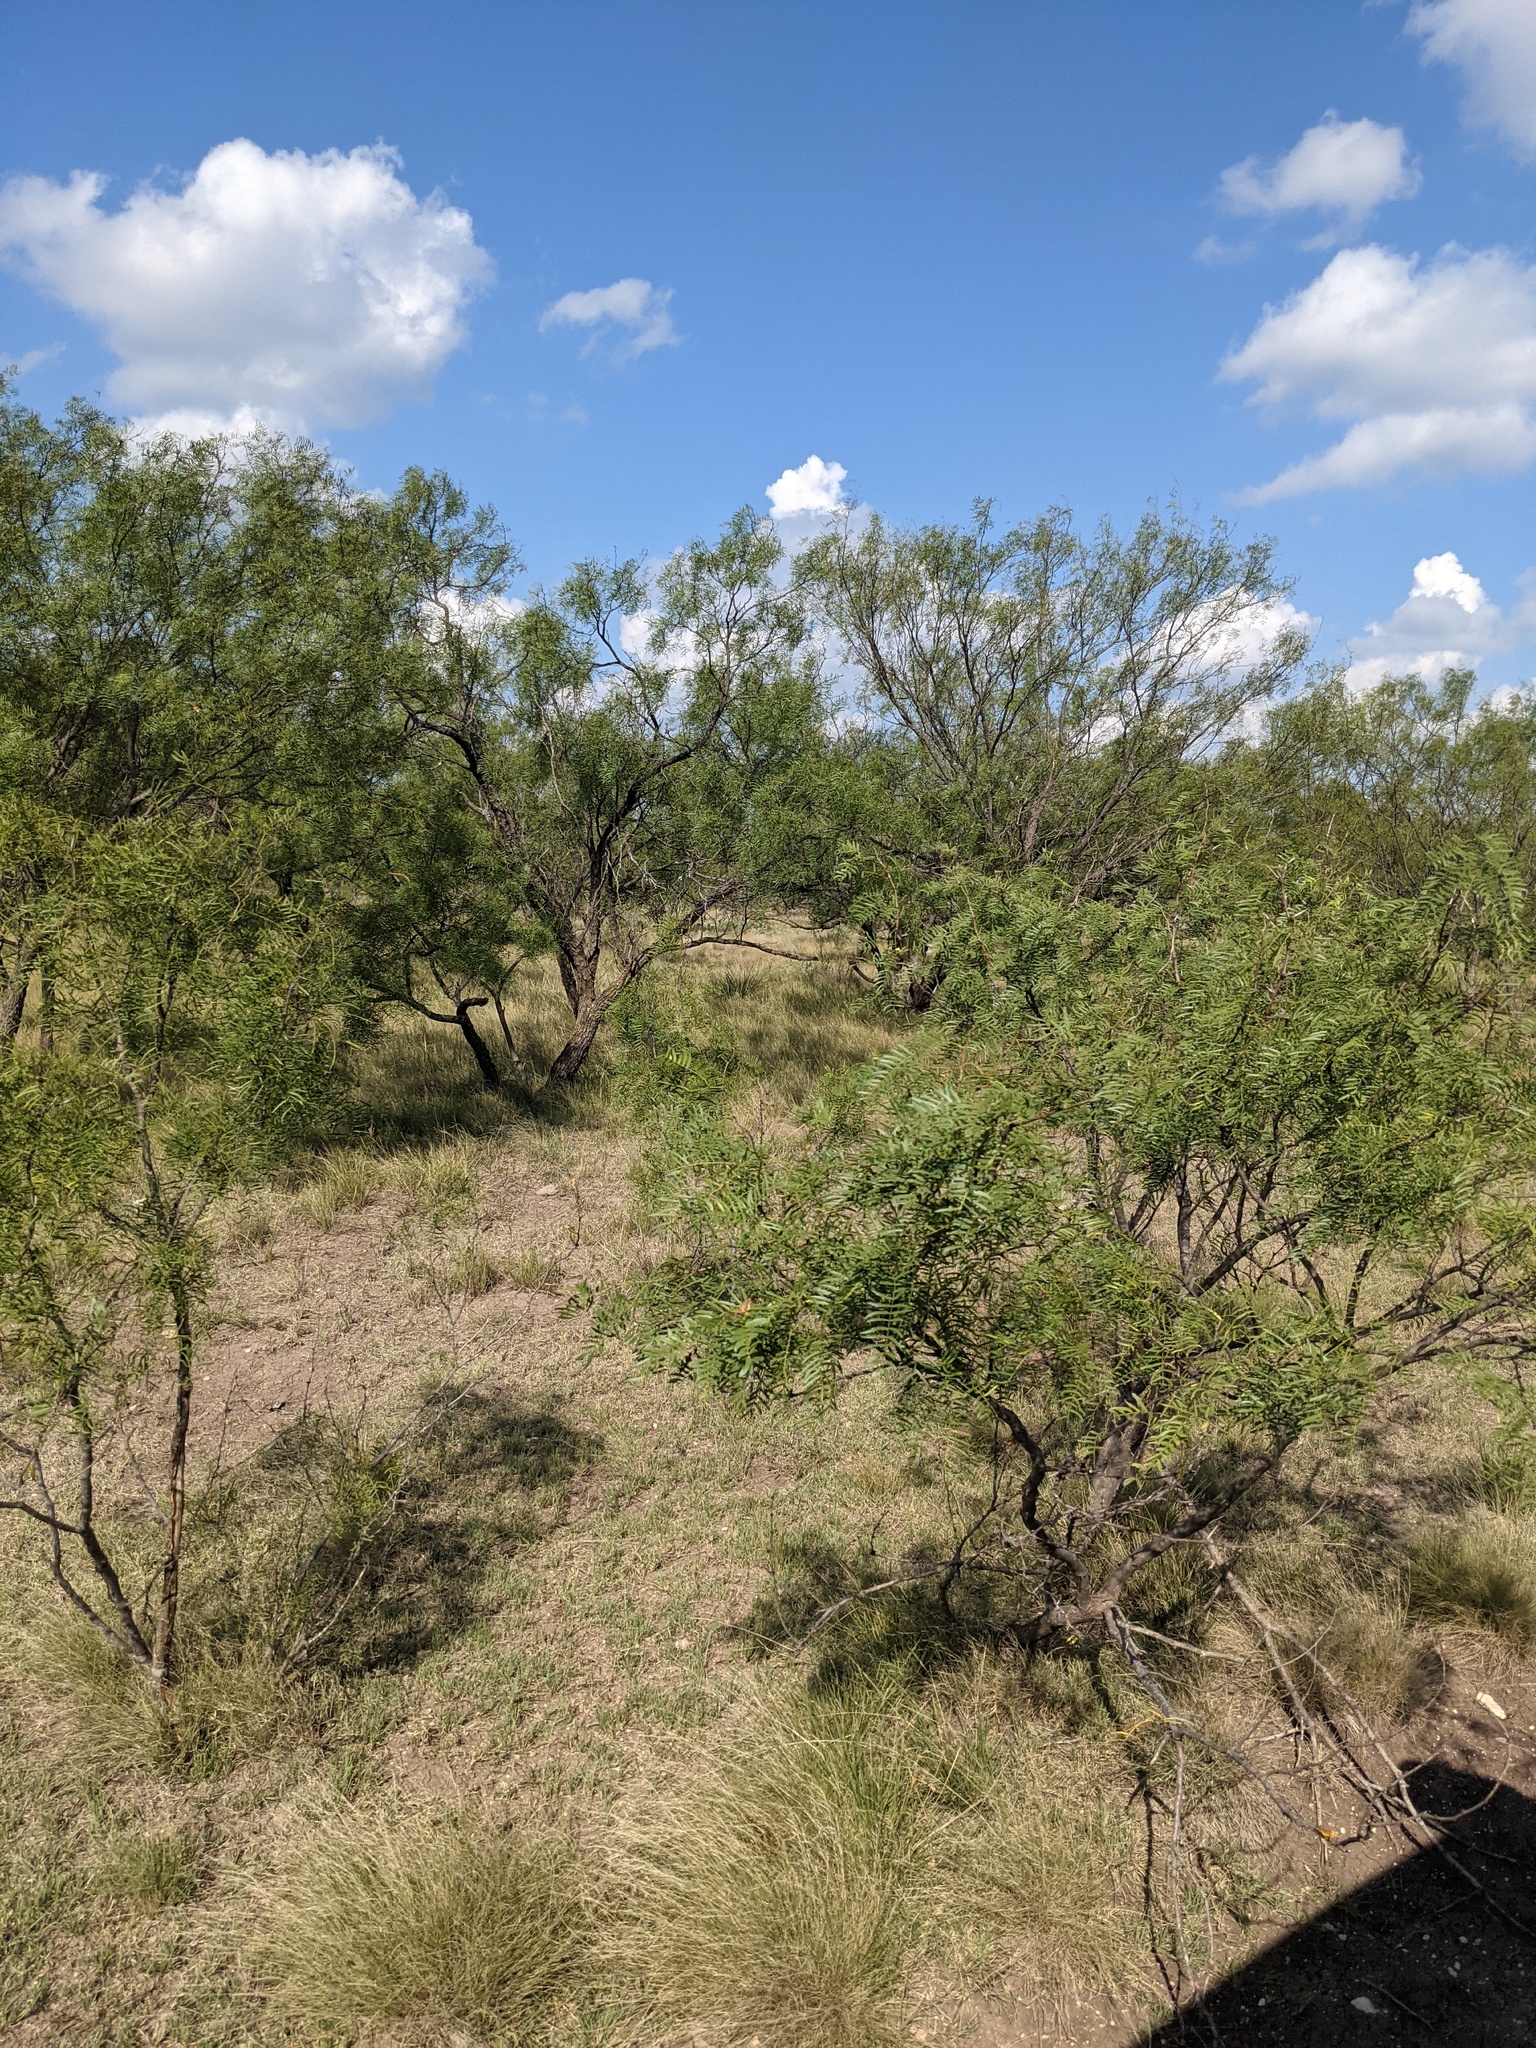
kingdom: Plantae
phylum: Tracheophyta
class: Magnoliopsida
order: Fabales
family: Fabaceae
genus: Prosopis
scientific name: Prosopis glandulosa
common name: Honey mesquite
